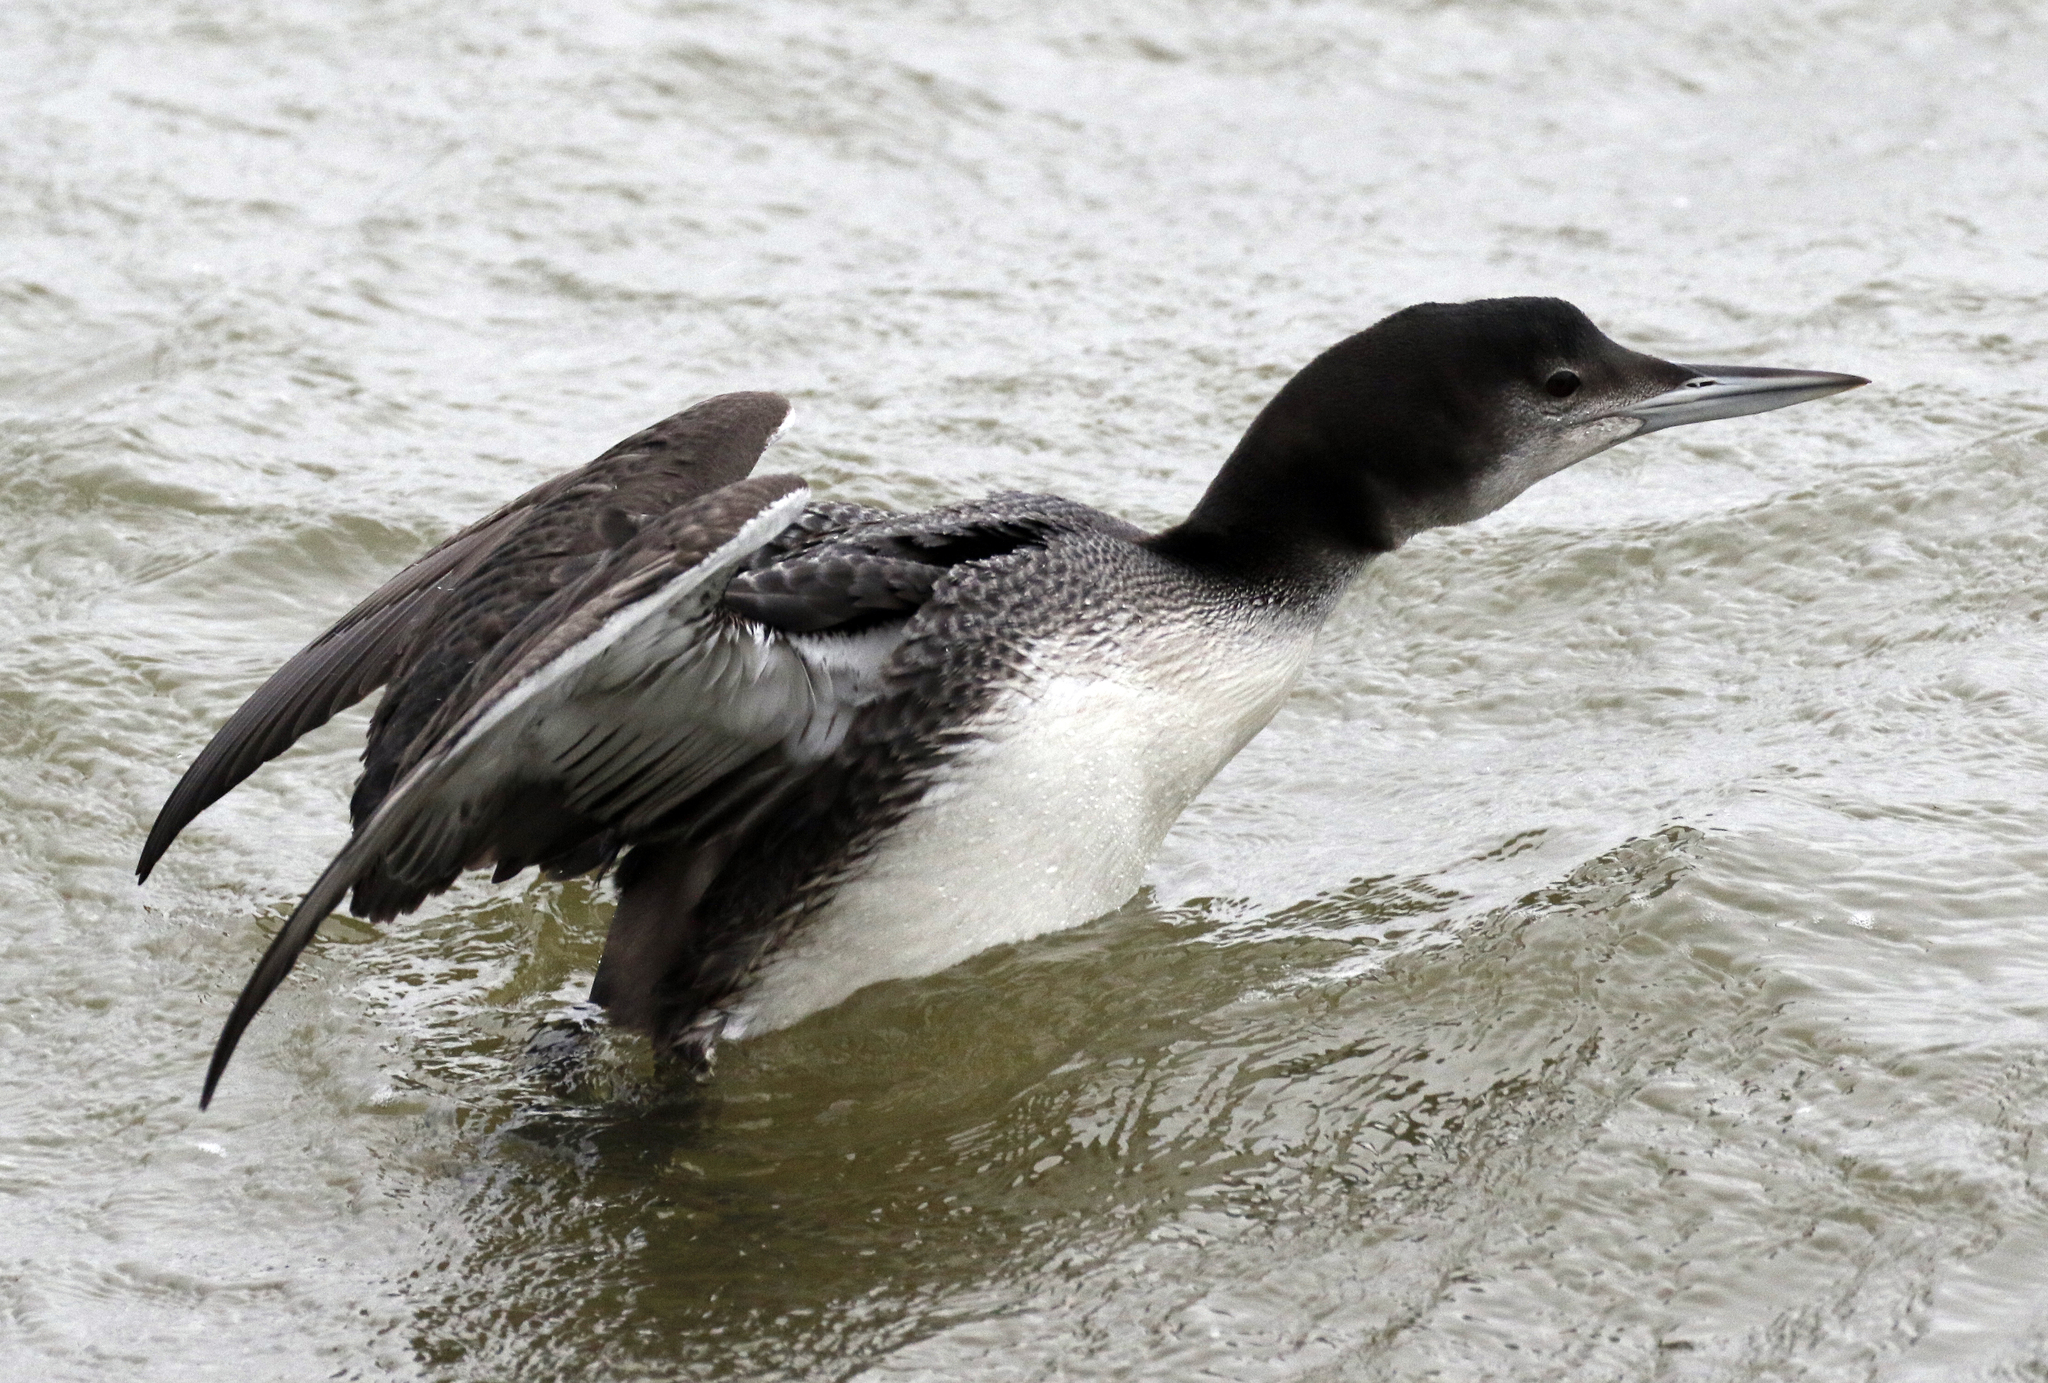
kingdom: Animalia
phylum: Chordata
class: Aves
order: Gaviiformes
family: Gaviidae
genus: Gavia
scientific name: Gavia immer
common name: Common loon
